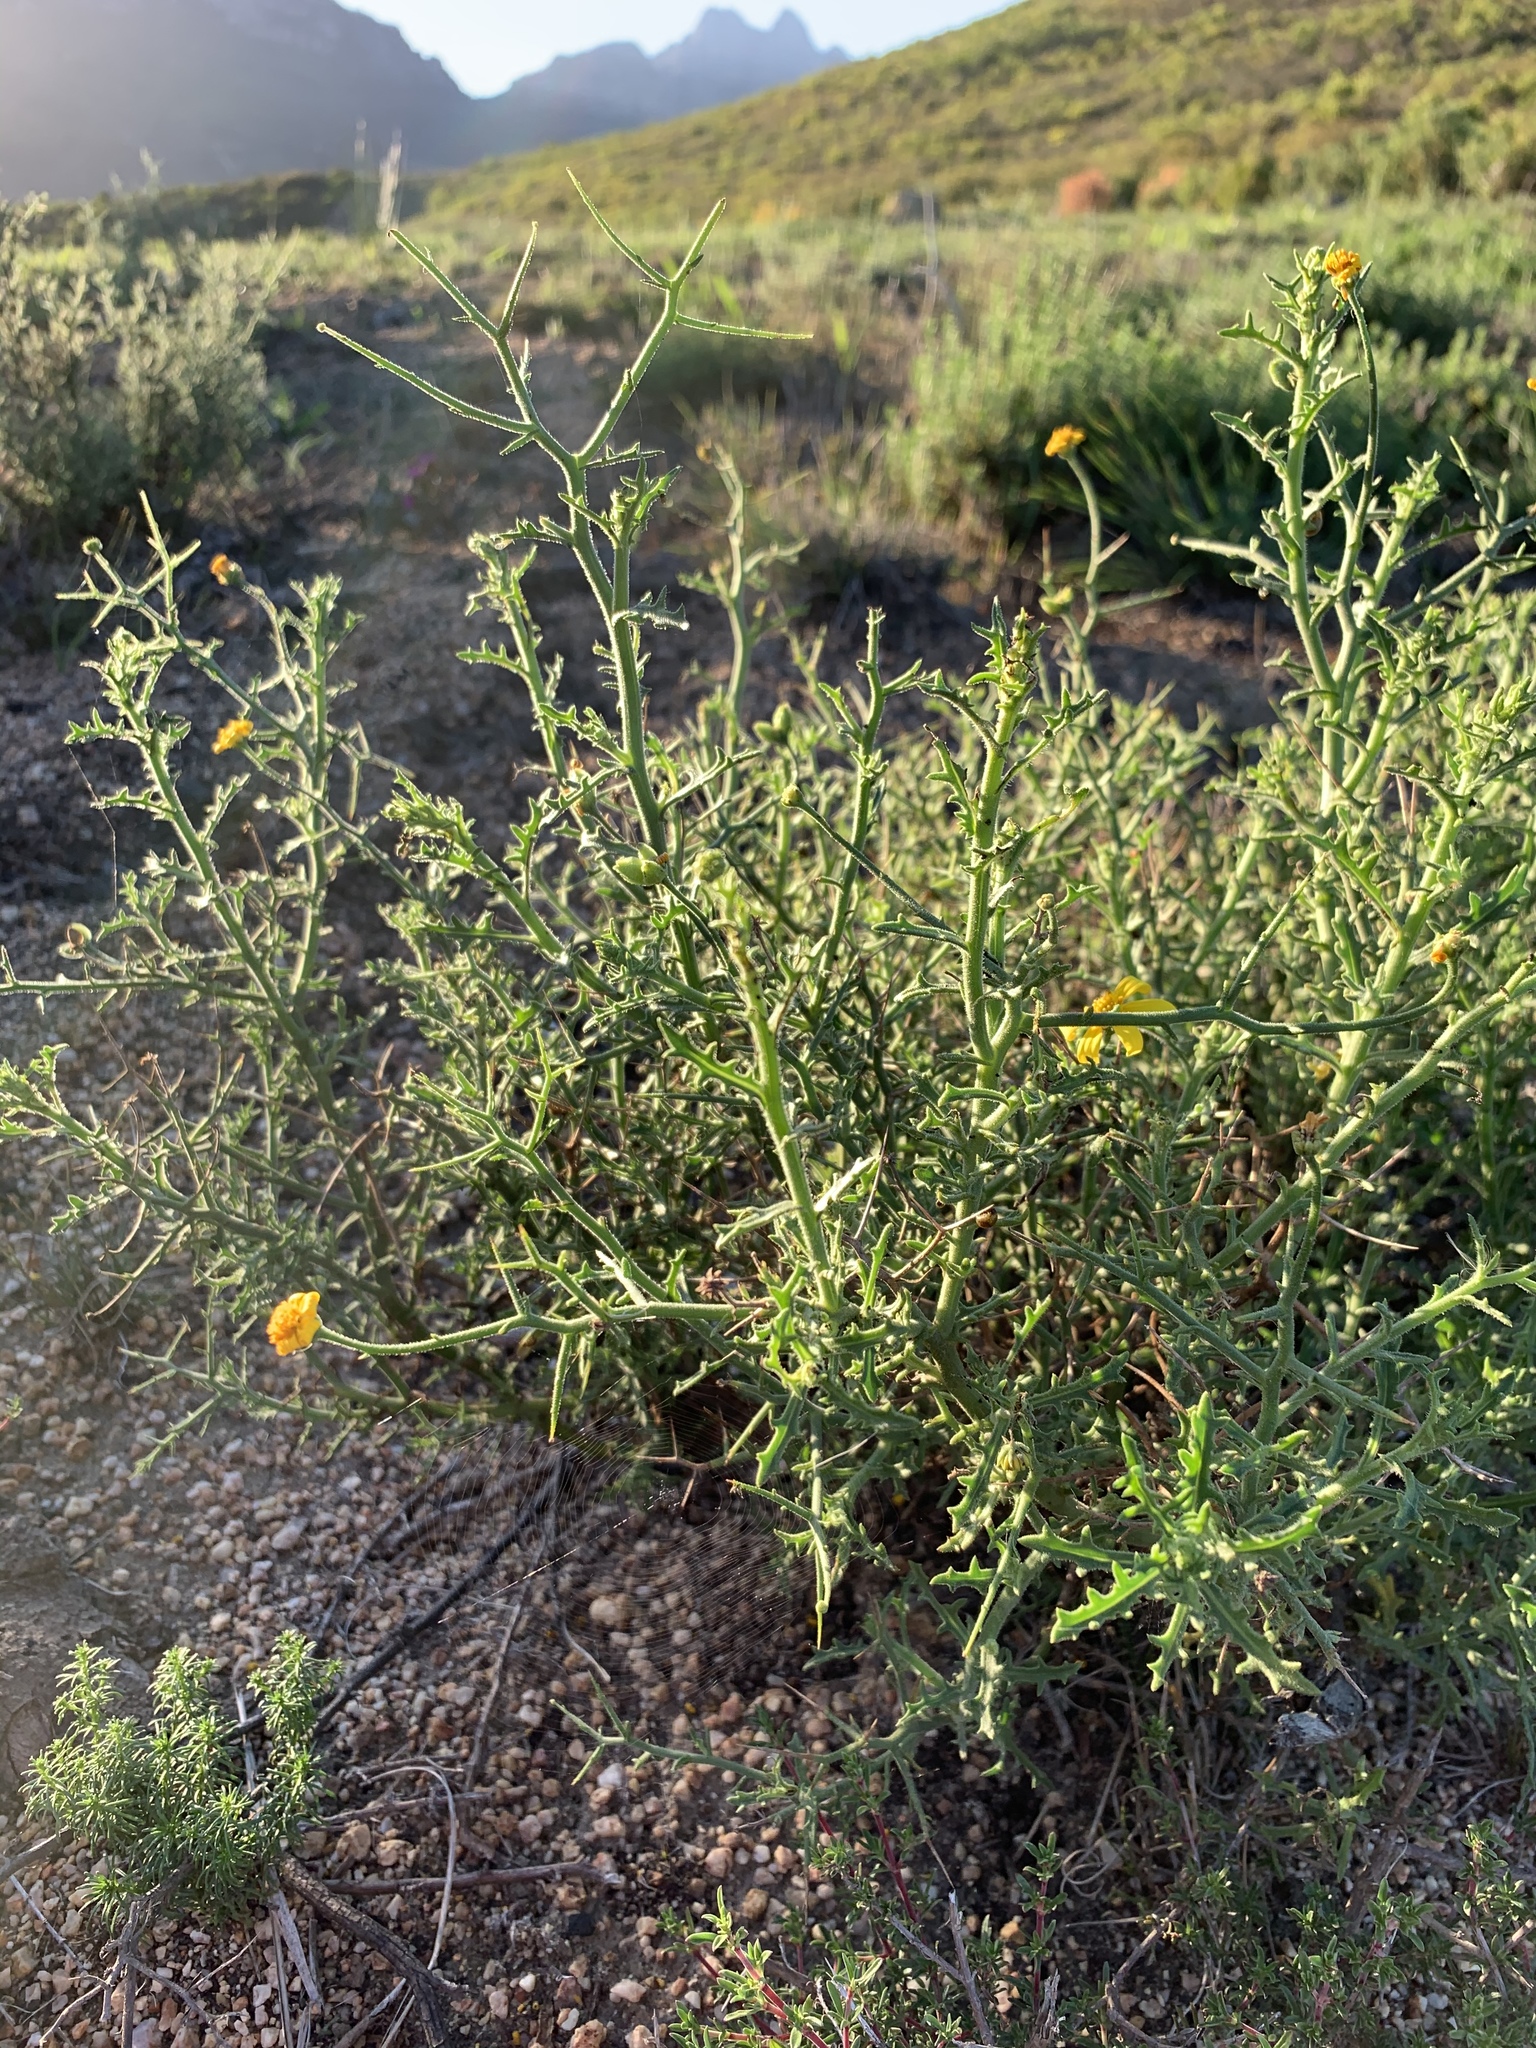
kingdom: Plantae
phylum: Tracheophyta
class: Magnoliopsida
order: Asterales
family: Asteraceae
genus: Osteospermum
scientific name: Osteospermum spinosum
